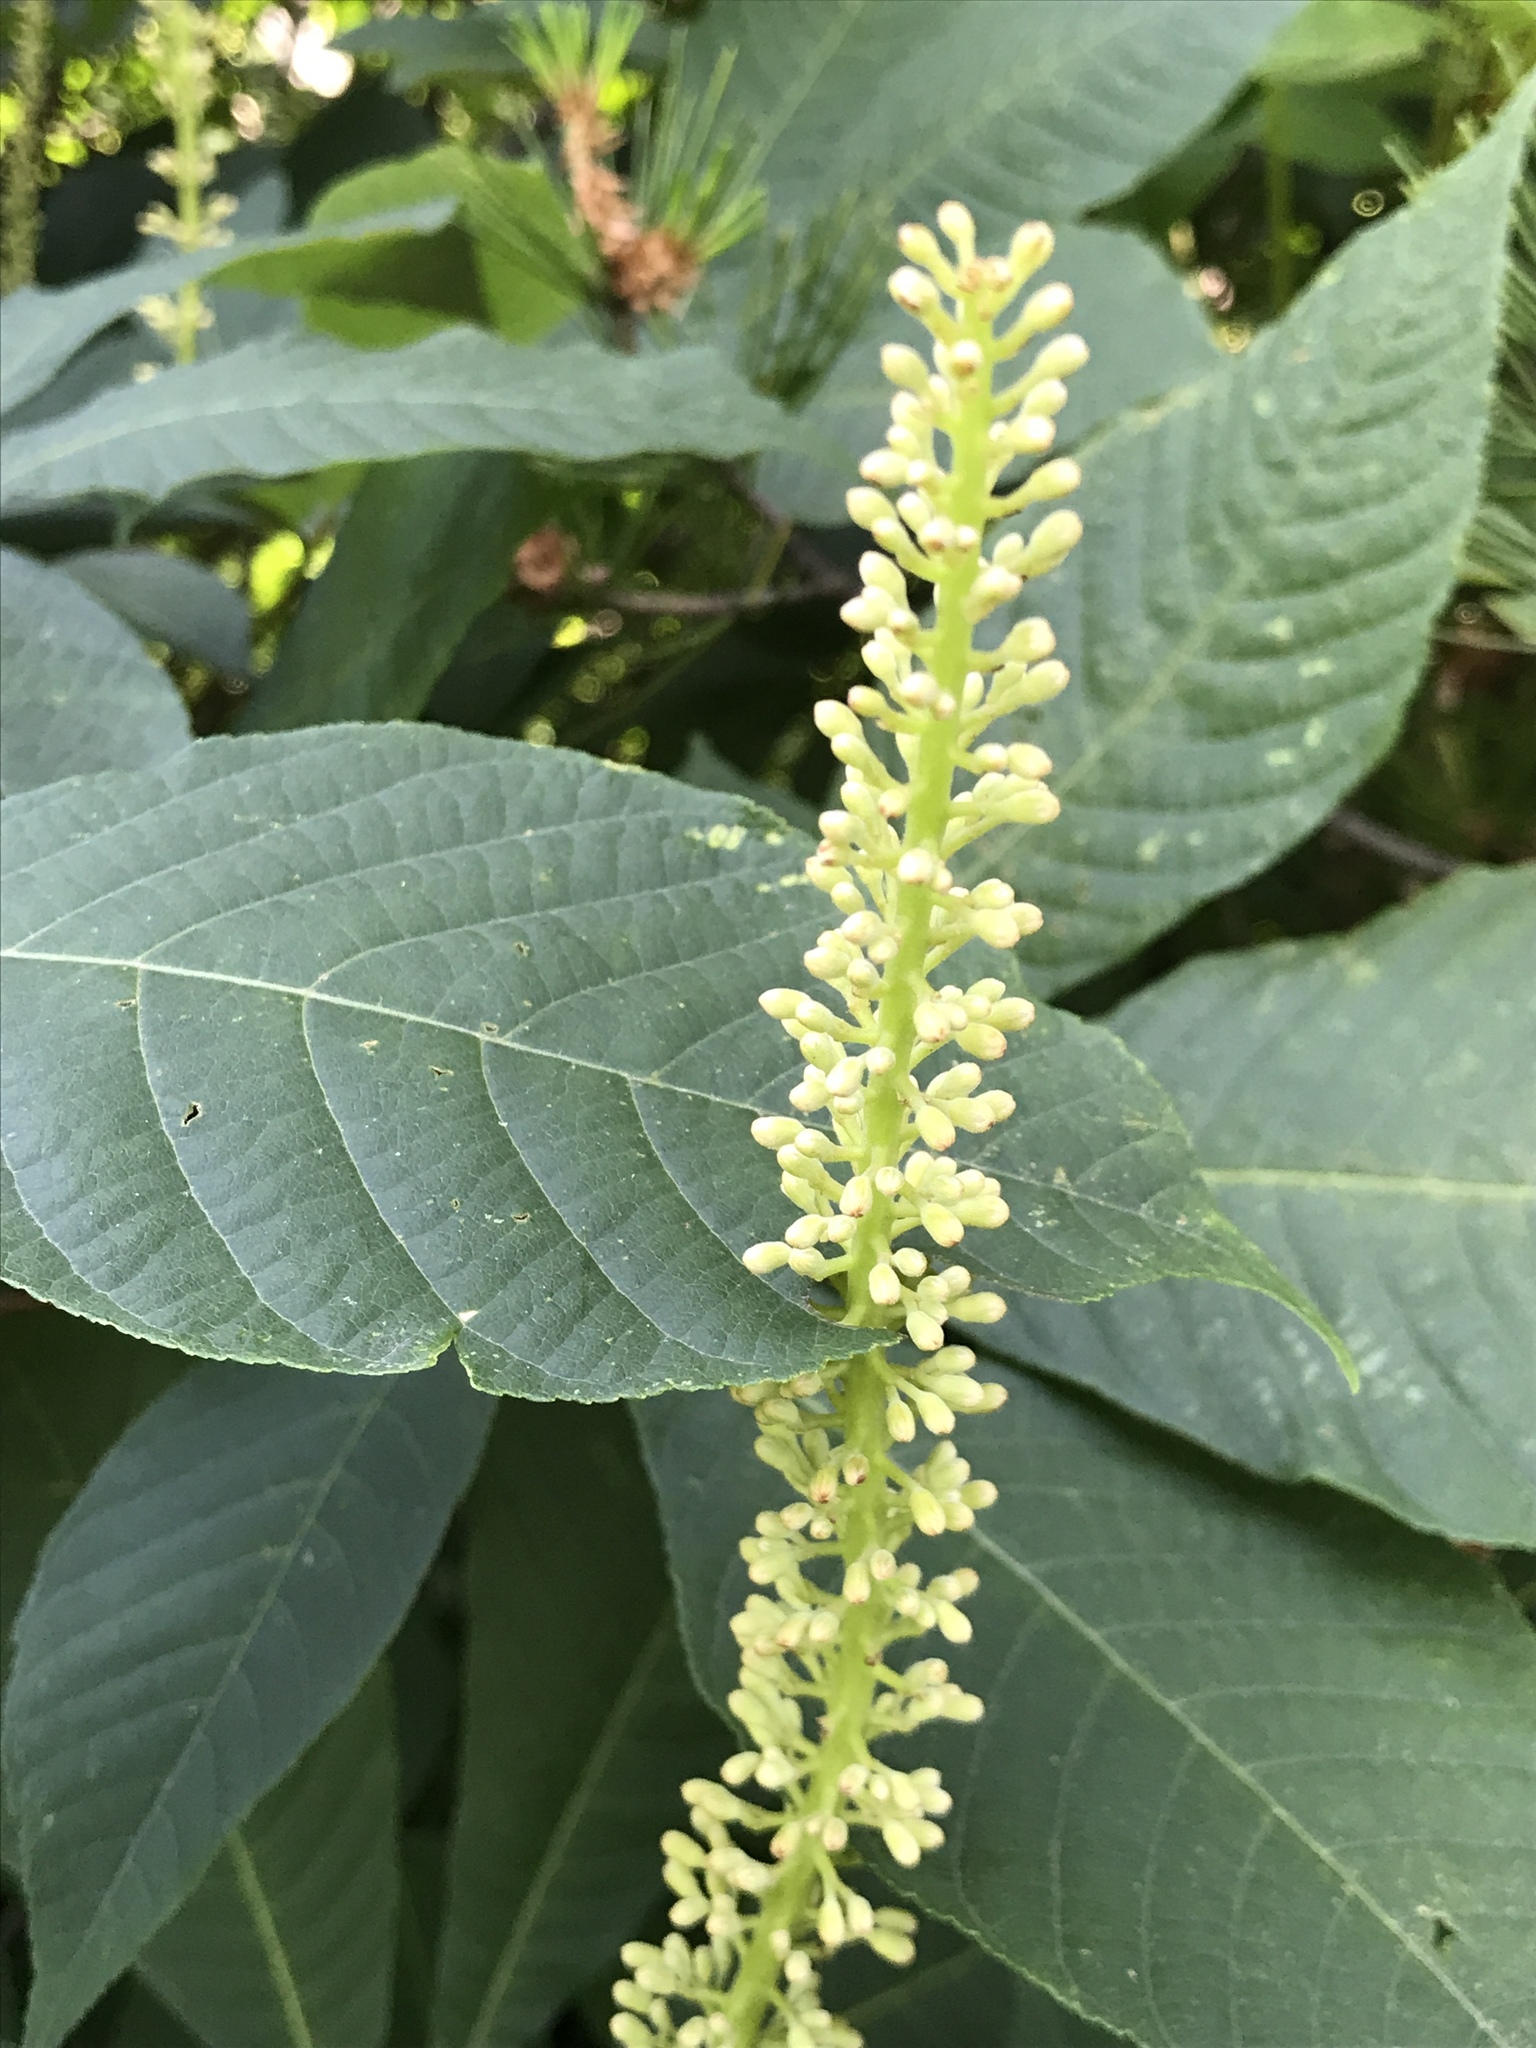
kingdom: Plantae
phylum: Tracheophyta
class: Magnoliopsida
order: Sapindales
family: Sapindaceae
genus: Aesculus
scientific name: Aesculus parviflora
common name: Bottlebrush buckeye
